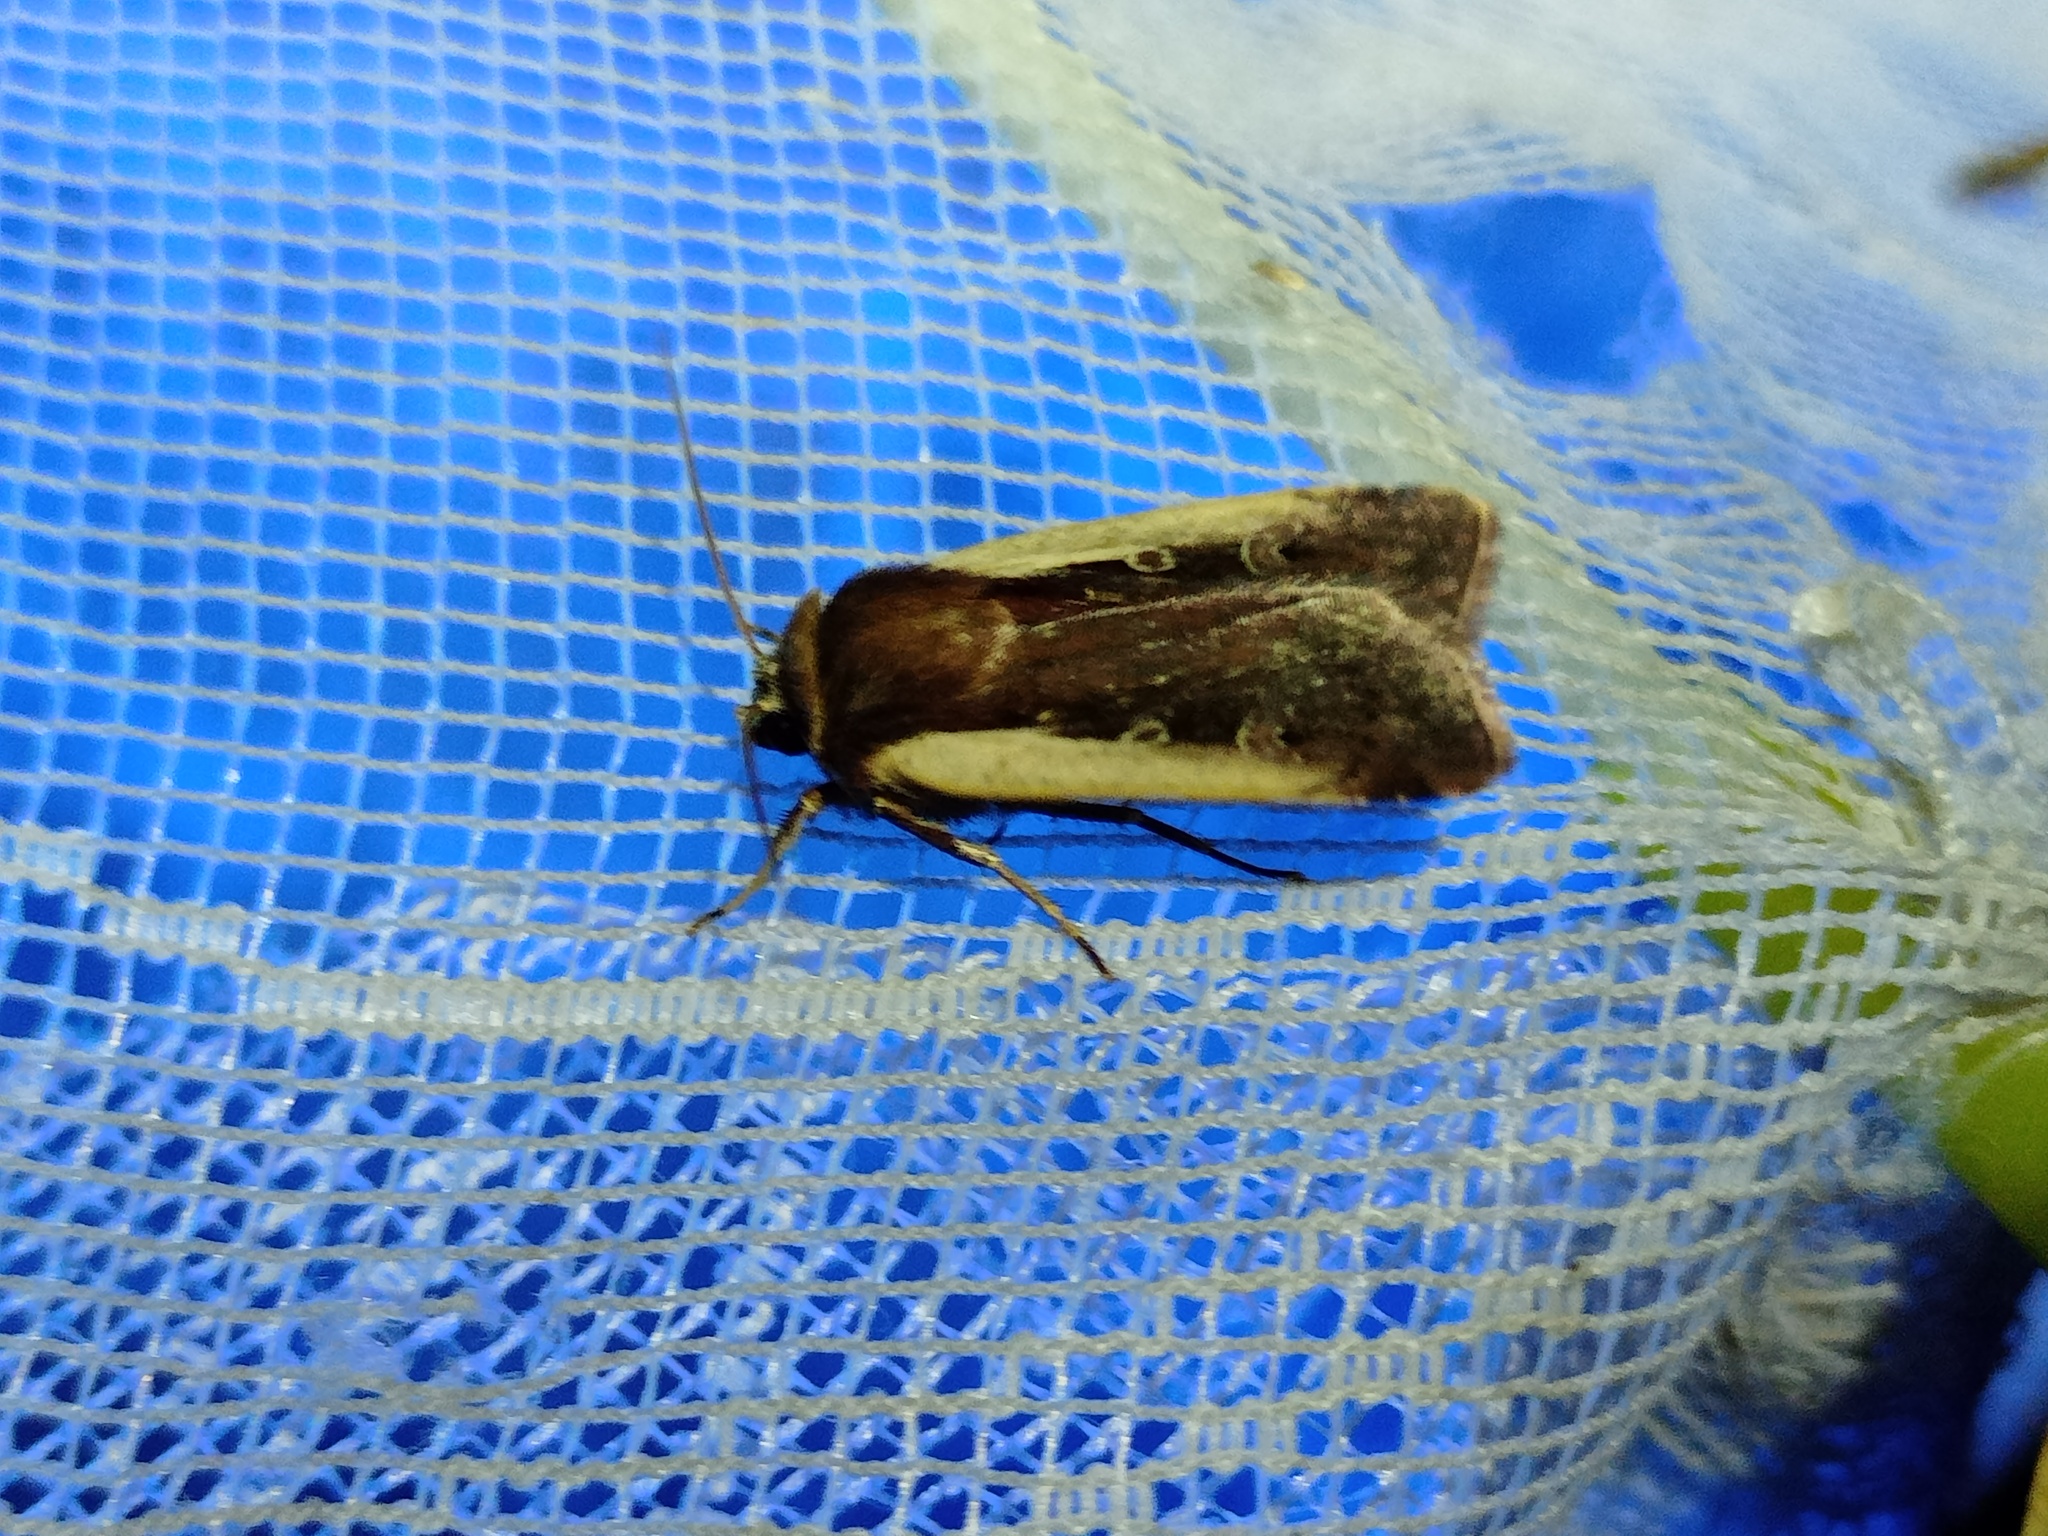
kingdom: Animalia
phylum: Arthropoda
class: Insecta
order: Lepidoptera
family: Noctuidae
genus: Ochropleura
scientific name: Ochropleura plecta
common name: Flame shoulder
